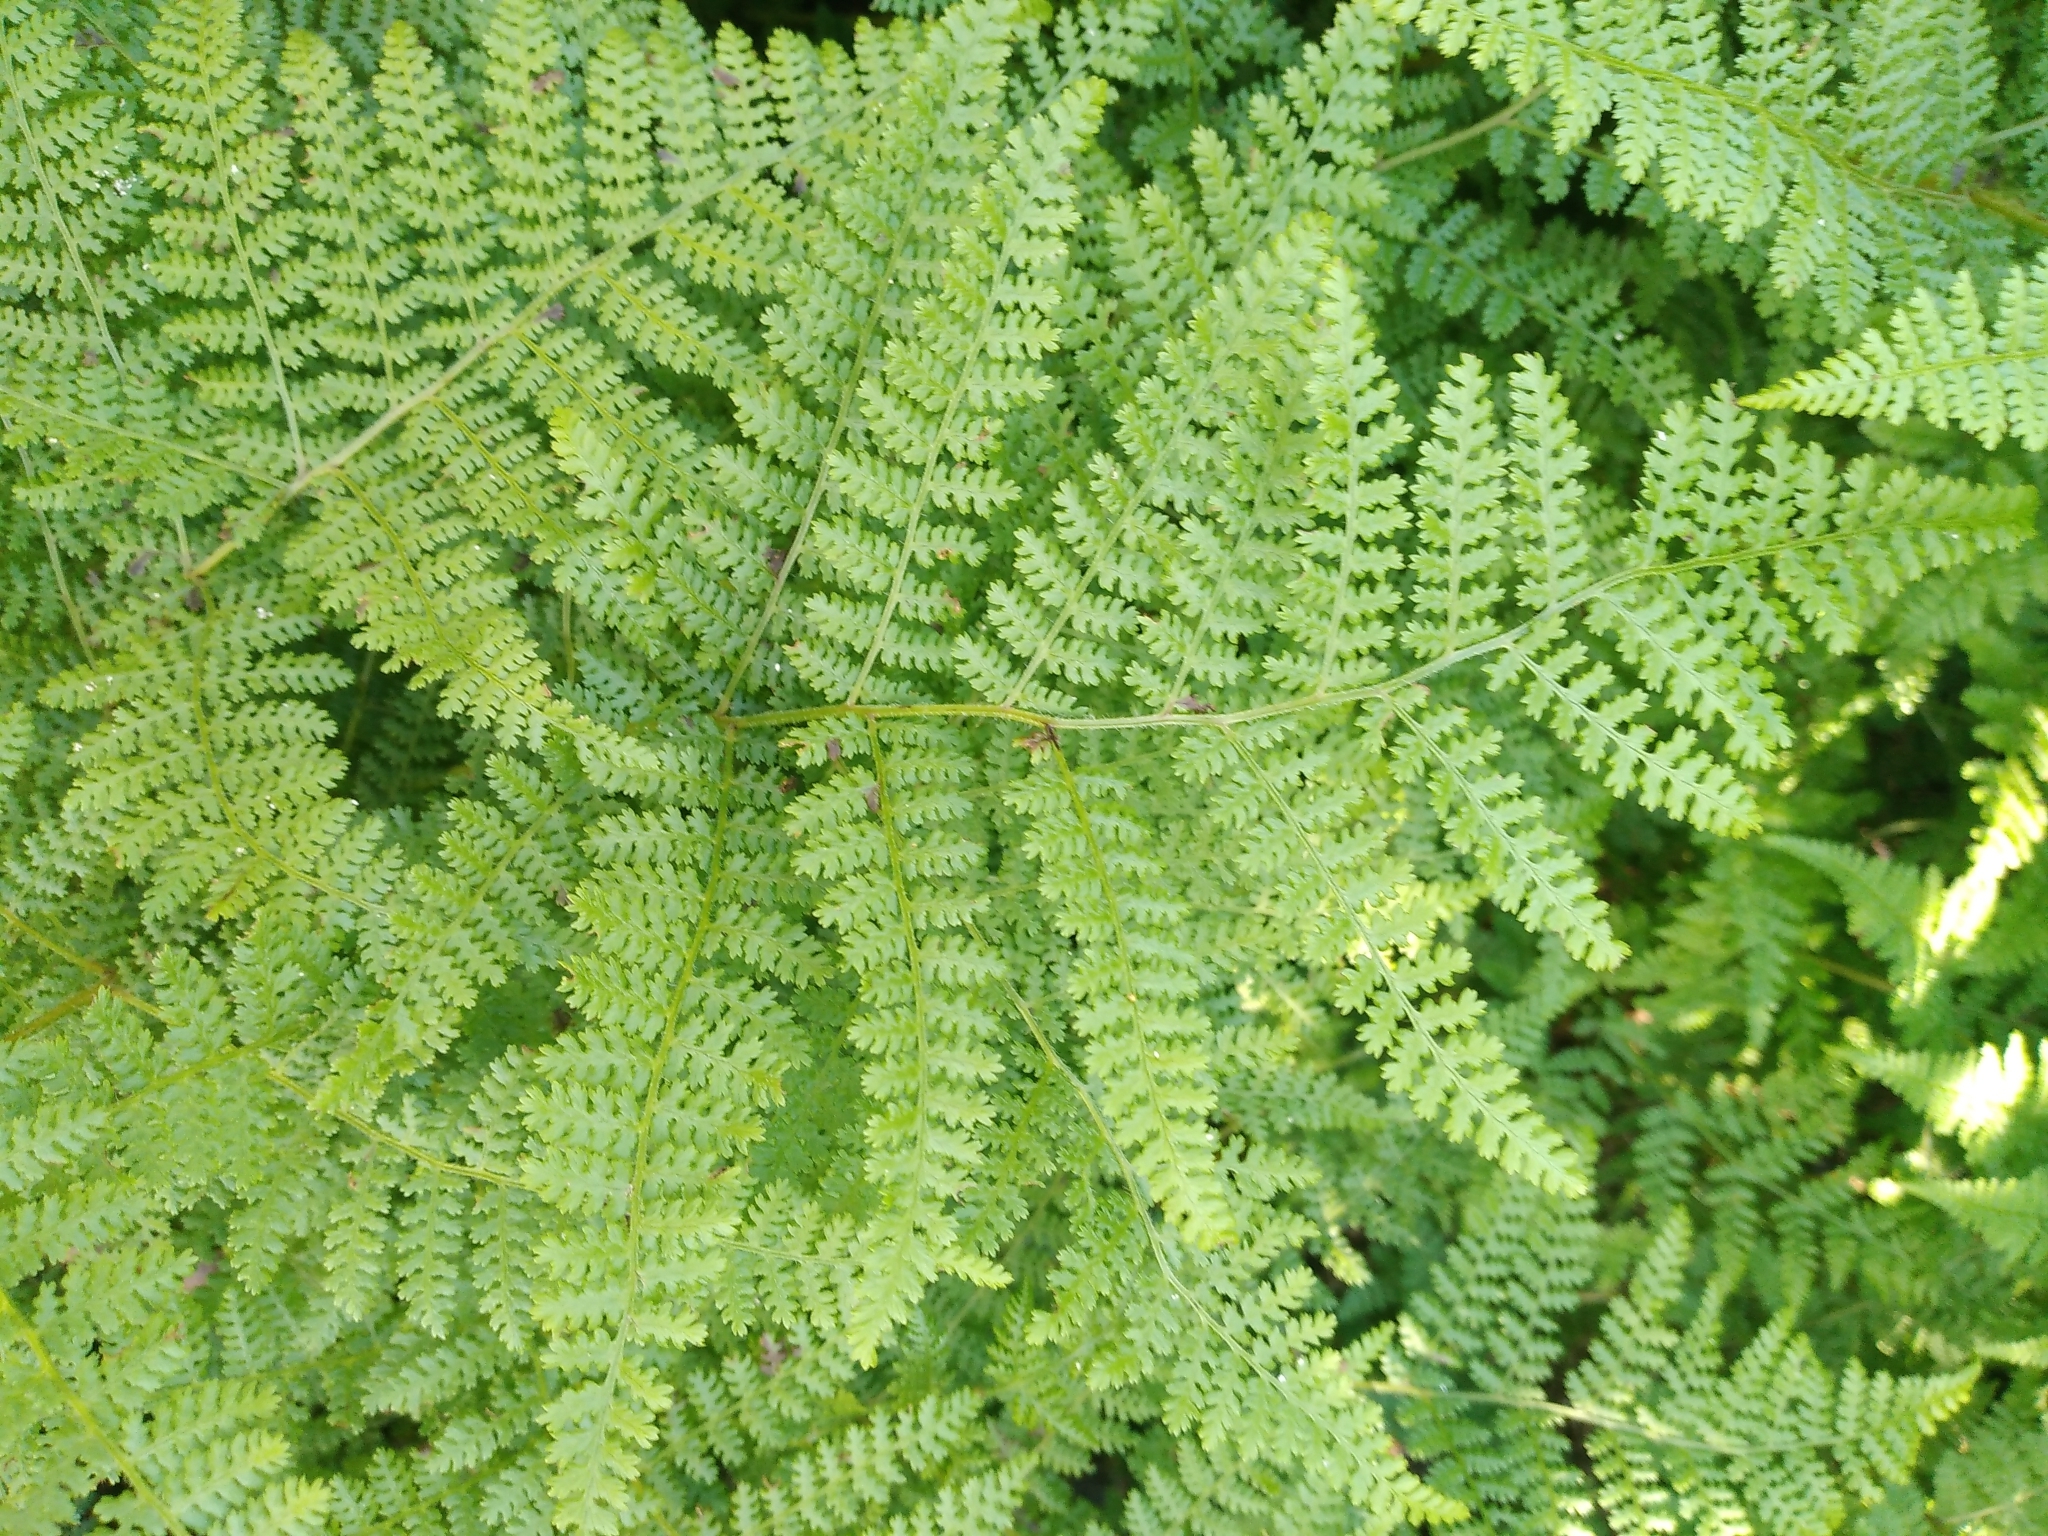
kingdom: Plantae
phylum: Tracheophyta
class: Polypodiopsida
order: Polypodiales
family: Dennstaedtiaceae
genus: Hypolepis
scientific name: Hypolepis millefolium
